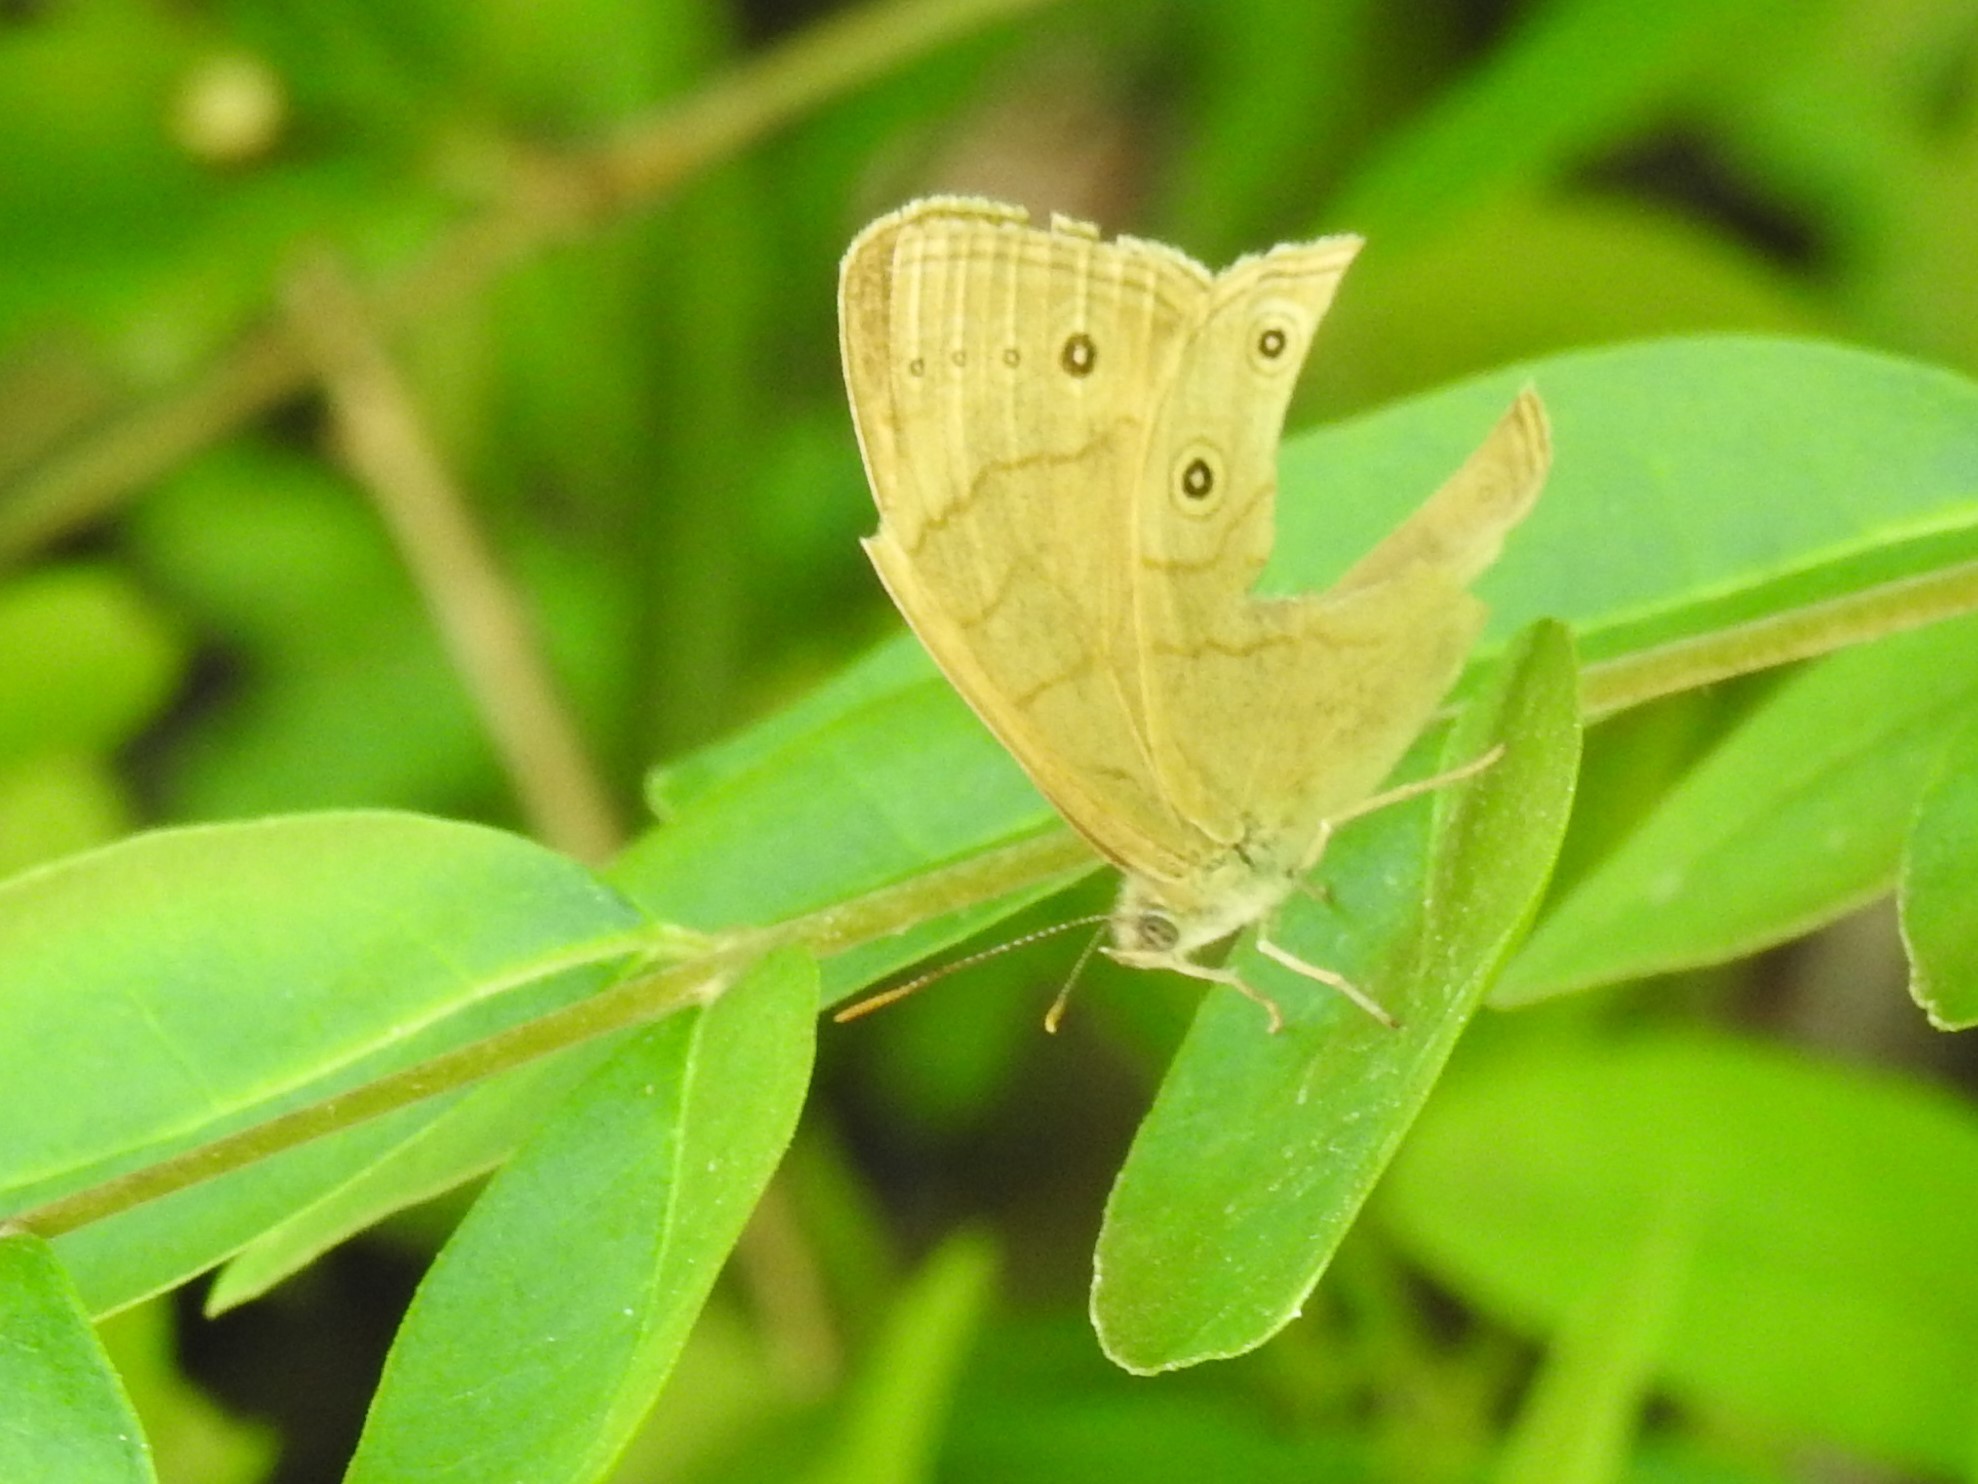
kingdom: Animalia
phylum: Arthropoda
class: Insecta
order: Lepidoptera
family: Nymphalidae
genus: Lethe
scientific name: Lethe eurydice
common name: Eyed brown
